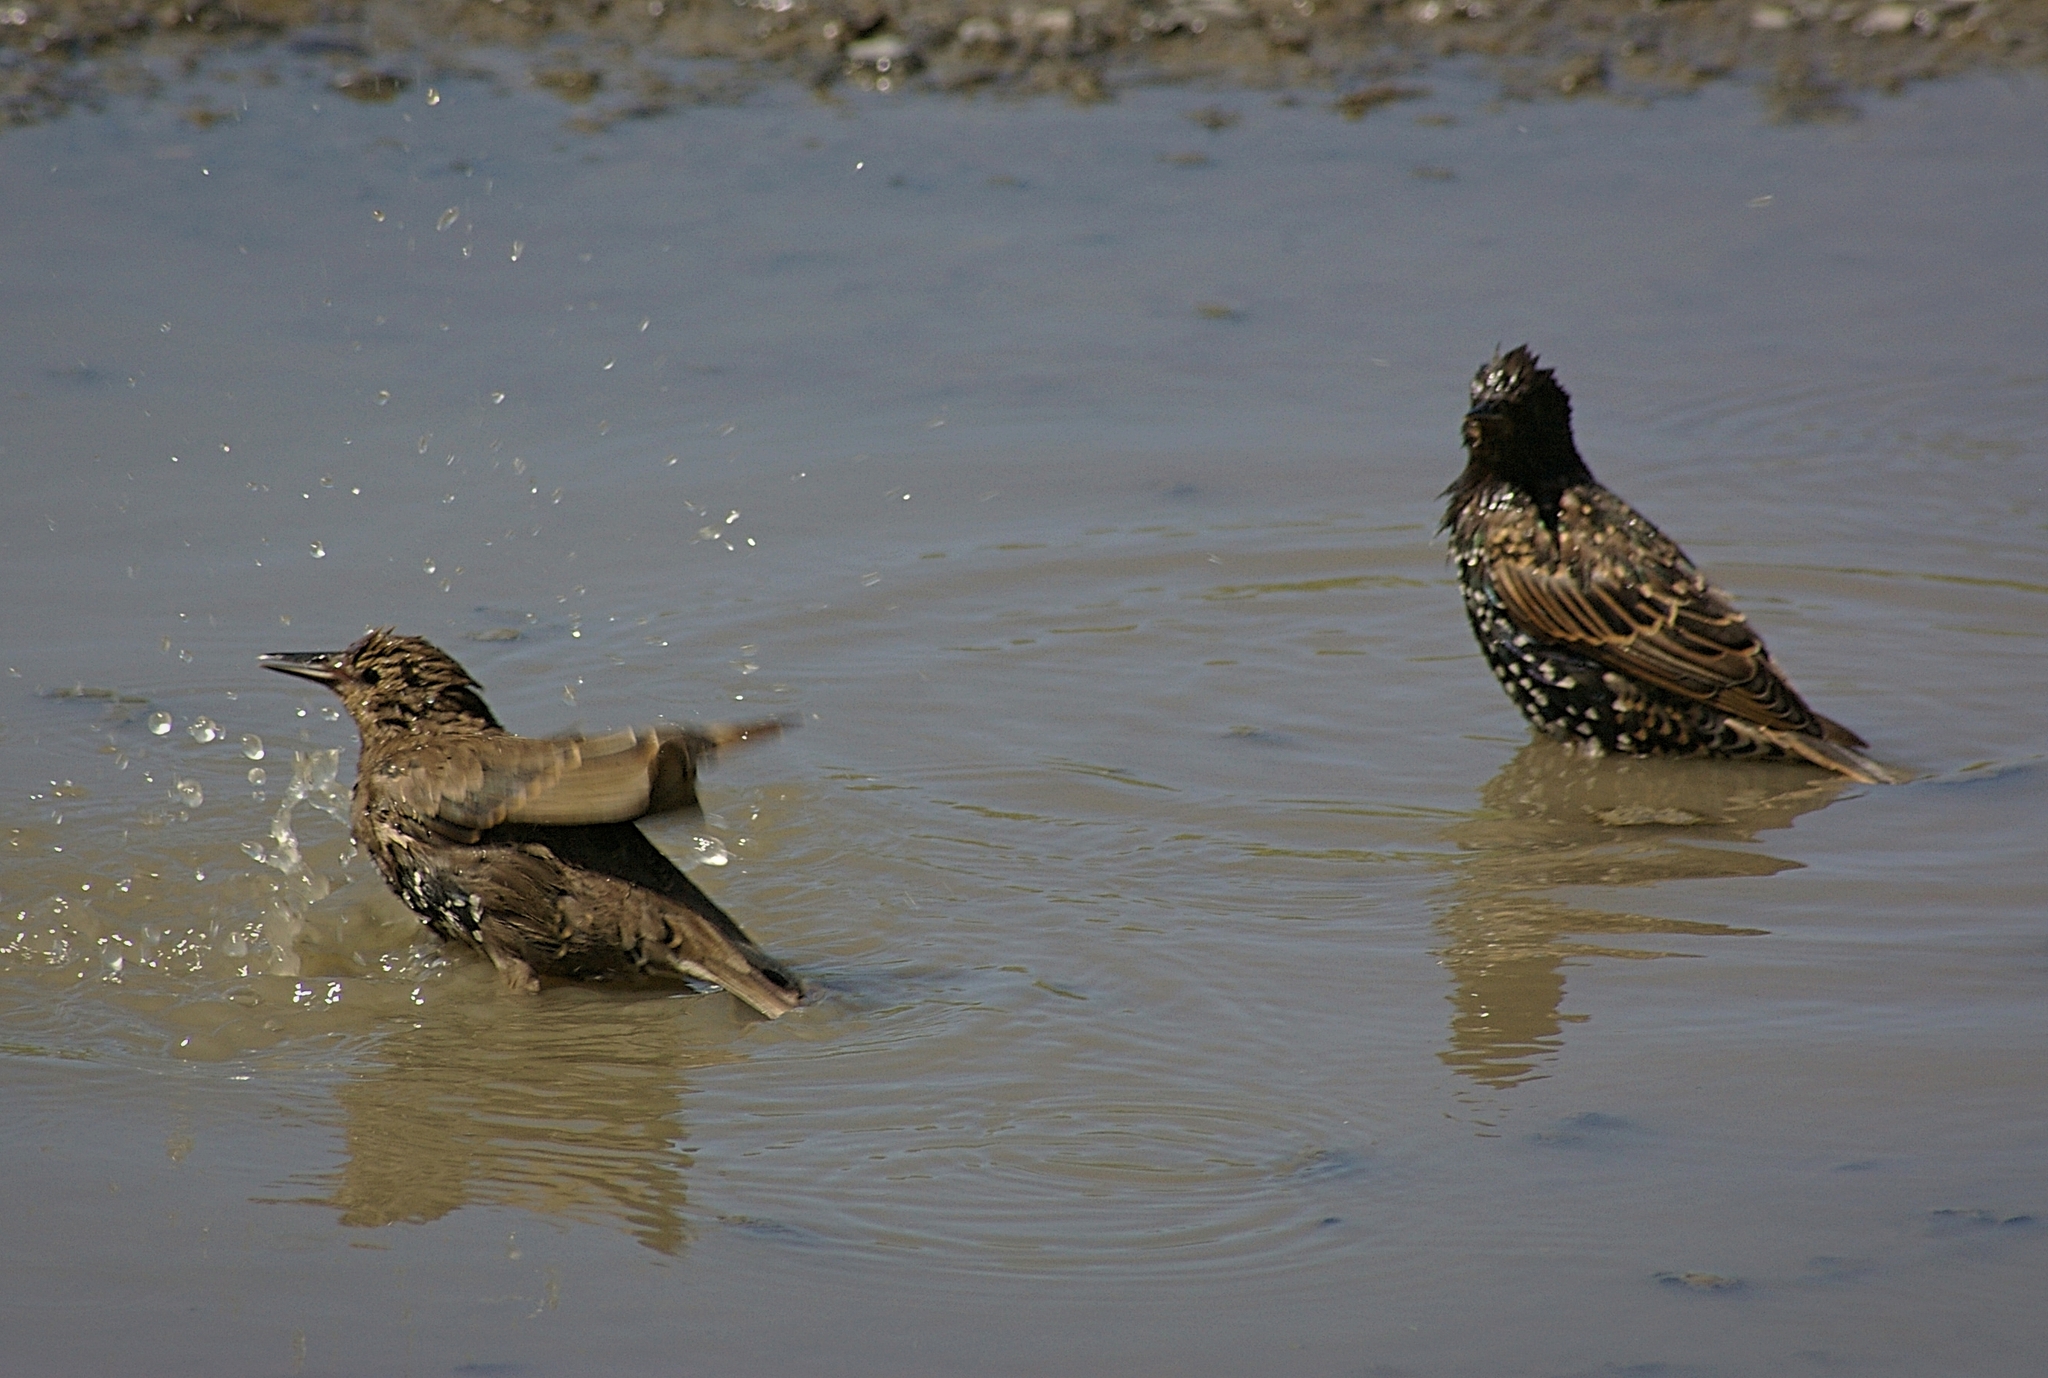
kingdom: Animalia
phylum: Chordata
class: Aves
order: Passeriformes
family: Sturnidae
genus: Sturnus
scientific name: Sturnus vulgaris
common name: Common starling
